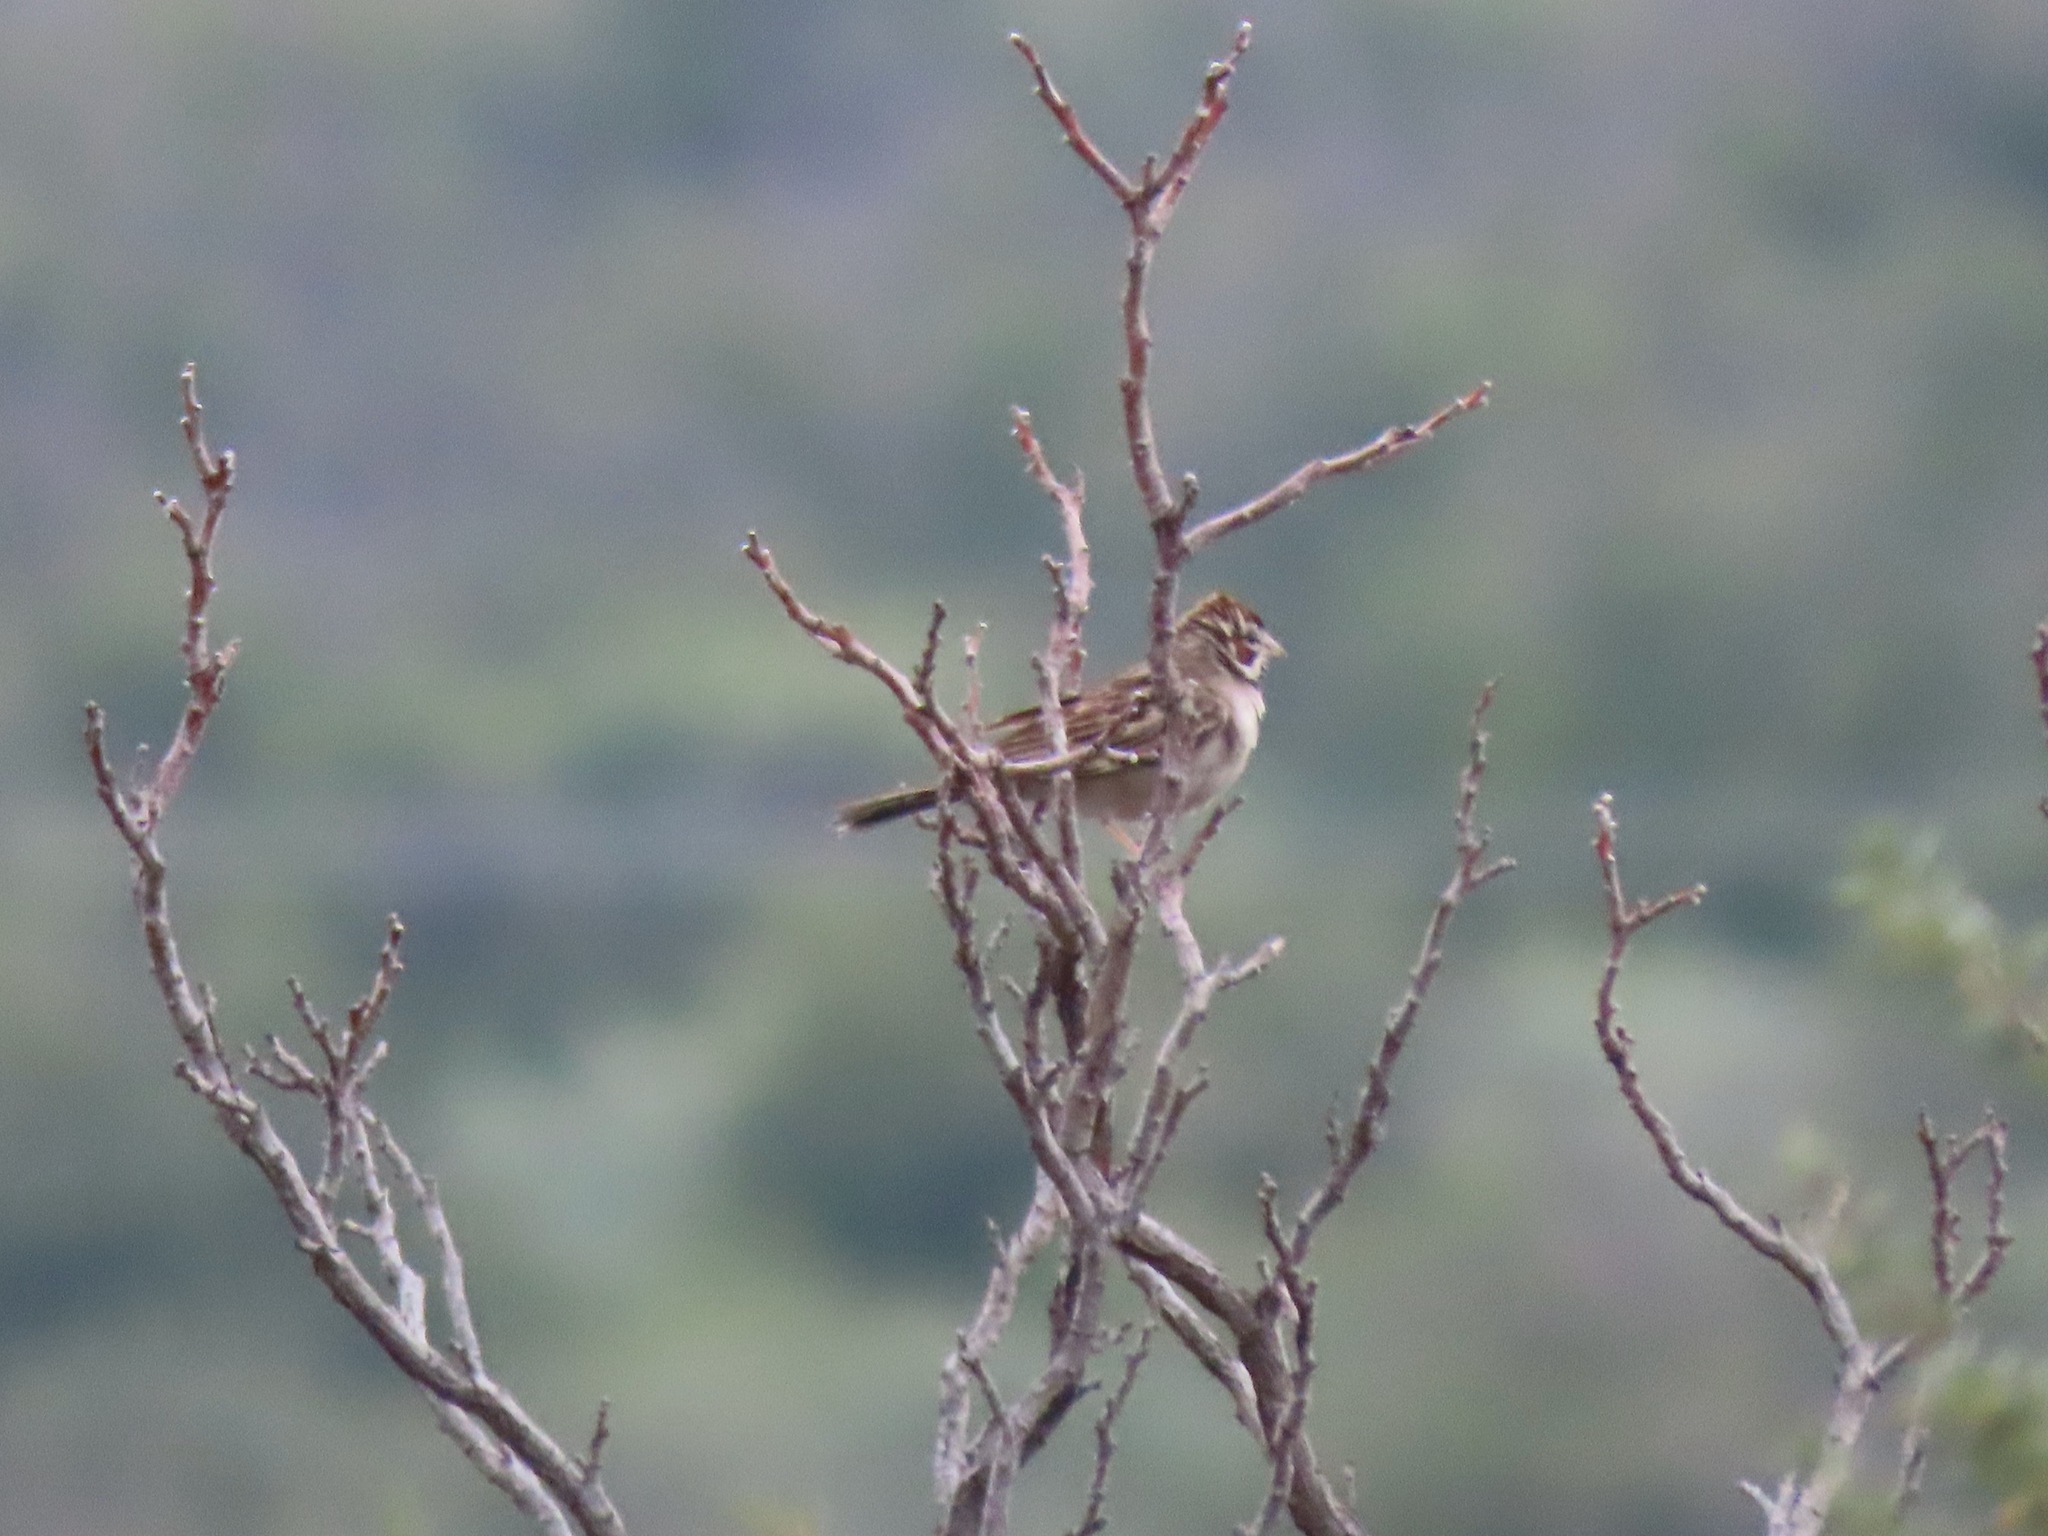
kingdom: Animalia
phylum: Chordata
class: Aves
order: Passeriformes
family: Passerellidae
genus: Chondestes
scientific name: Chondestes grammacus
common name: Lark sparrow
